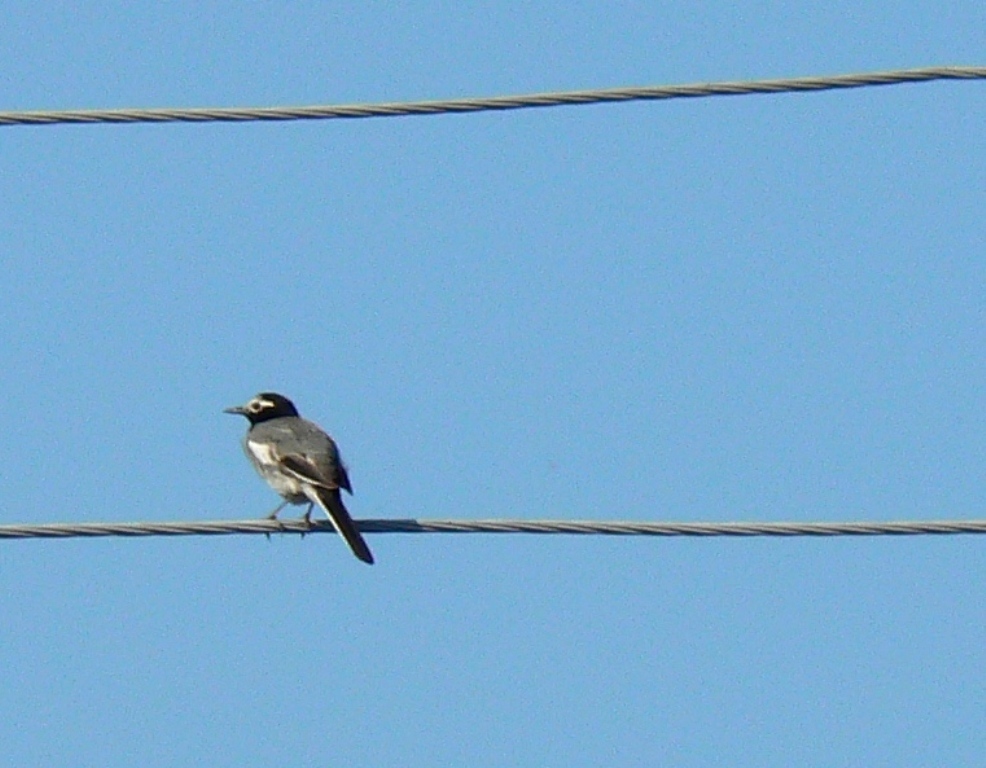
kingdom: Animalia
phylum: Chordata
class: Aves
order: Passeriformes
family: Motacillidae
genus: Motacilla
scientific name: Motacilla alba
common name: White wagtail
